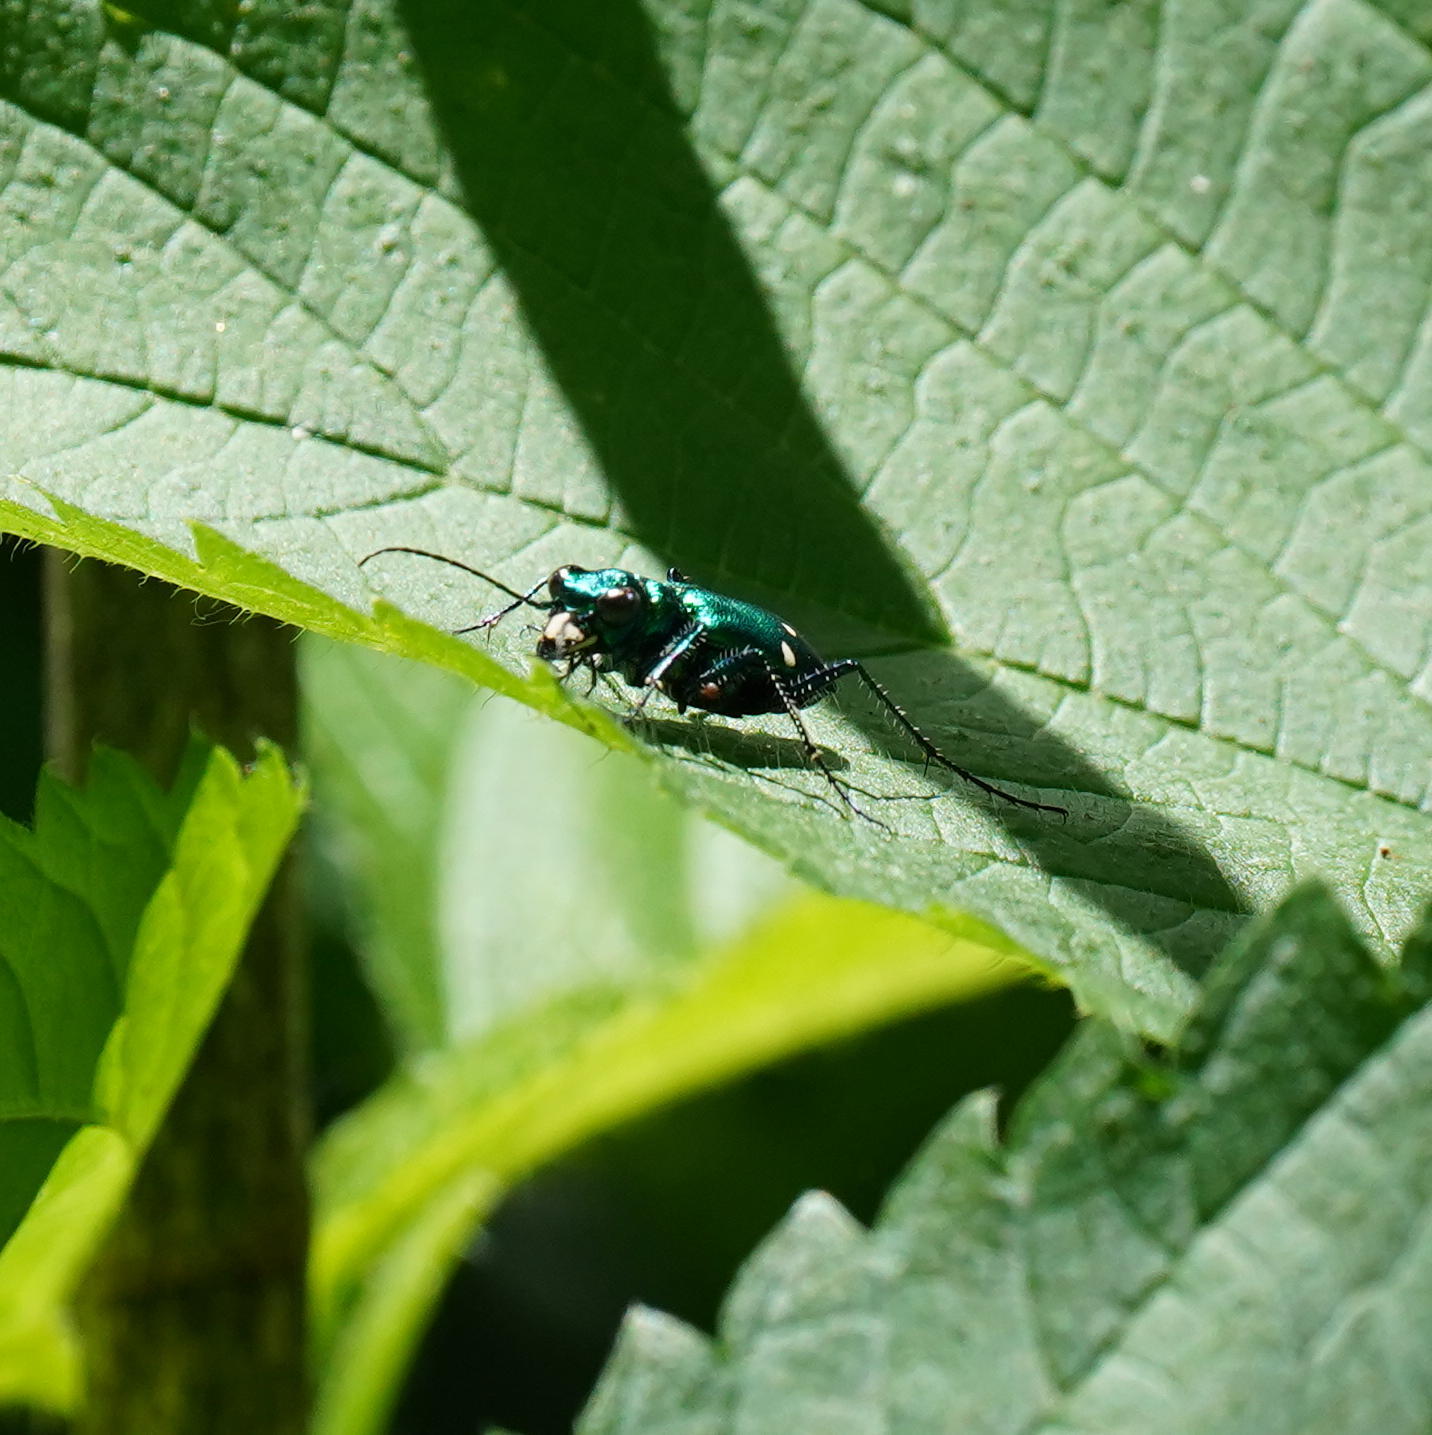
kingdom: Animalia
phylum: Arthropoda
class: Insecta
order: Coleoptera
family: Carabidae
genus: Cicindela
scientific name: Cicindela sexguttata
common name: Six-spotted tiger beetle
